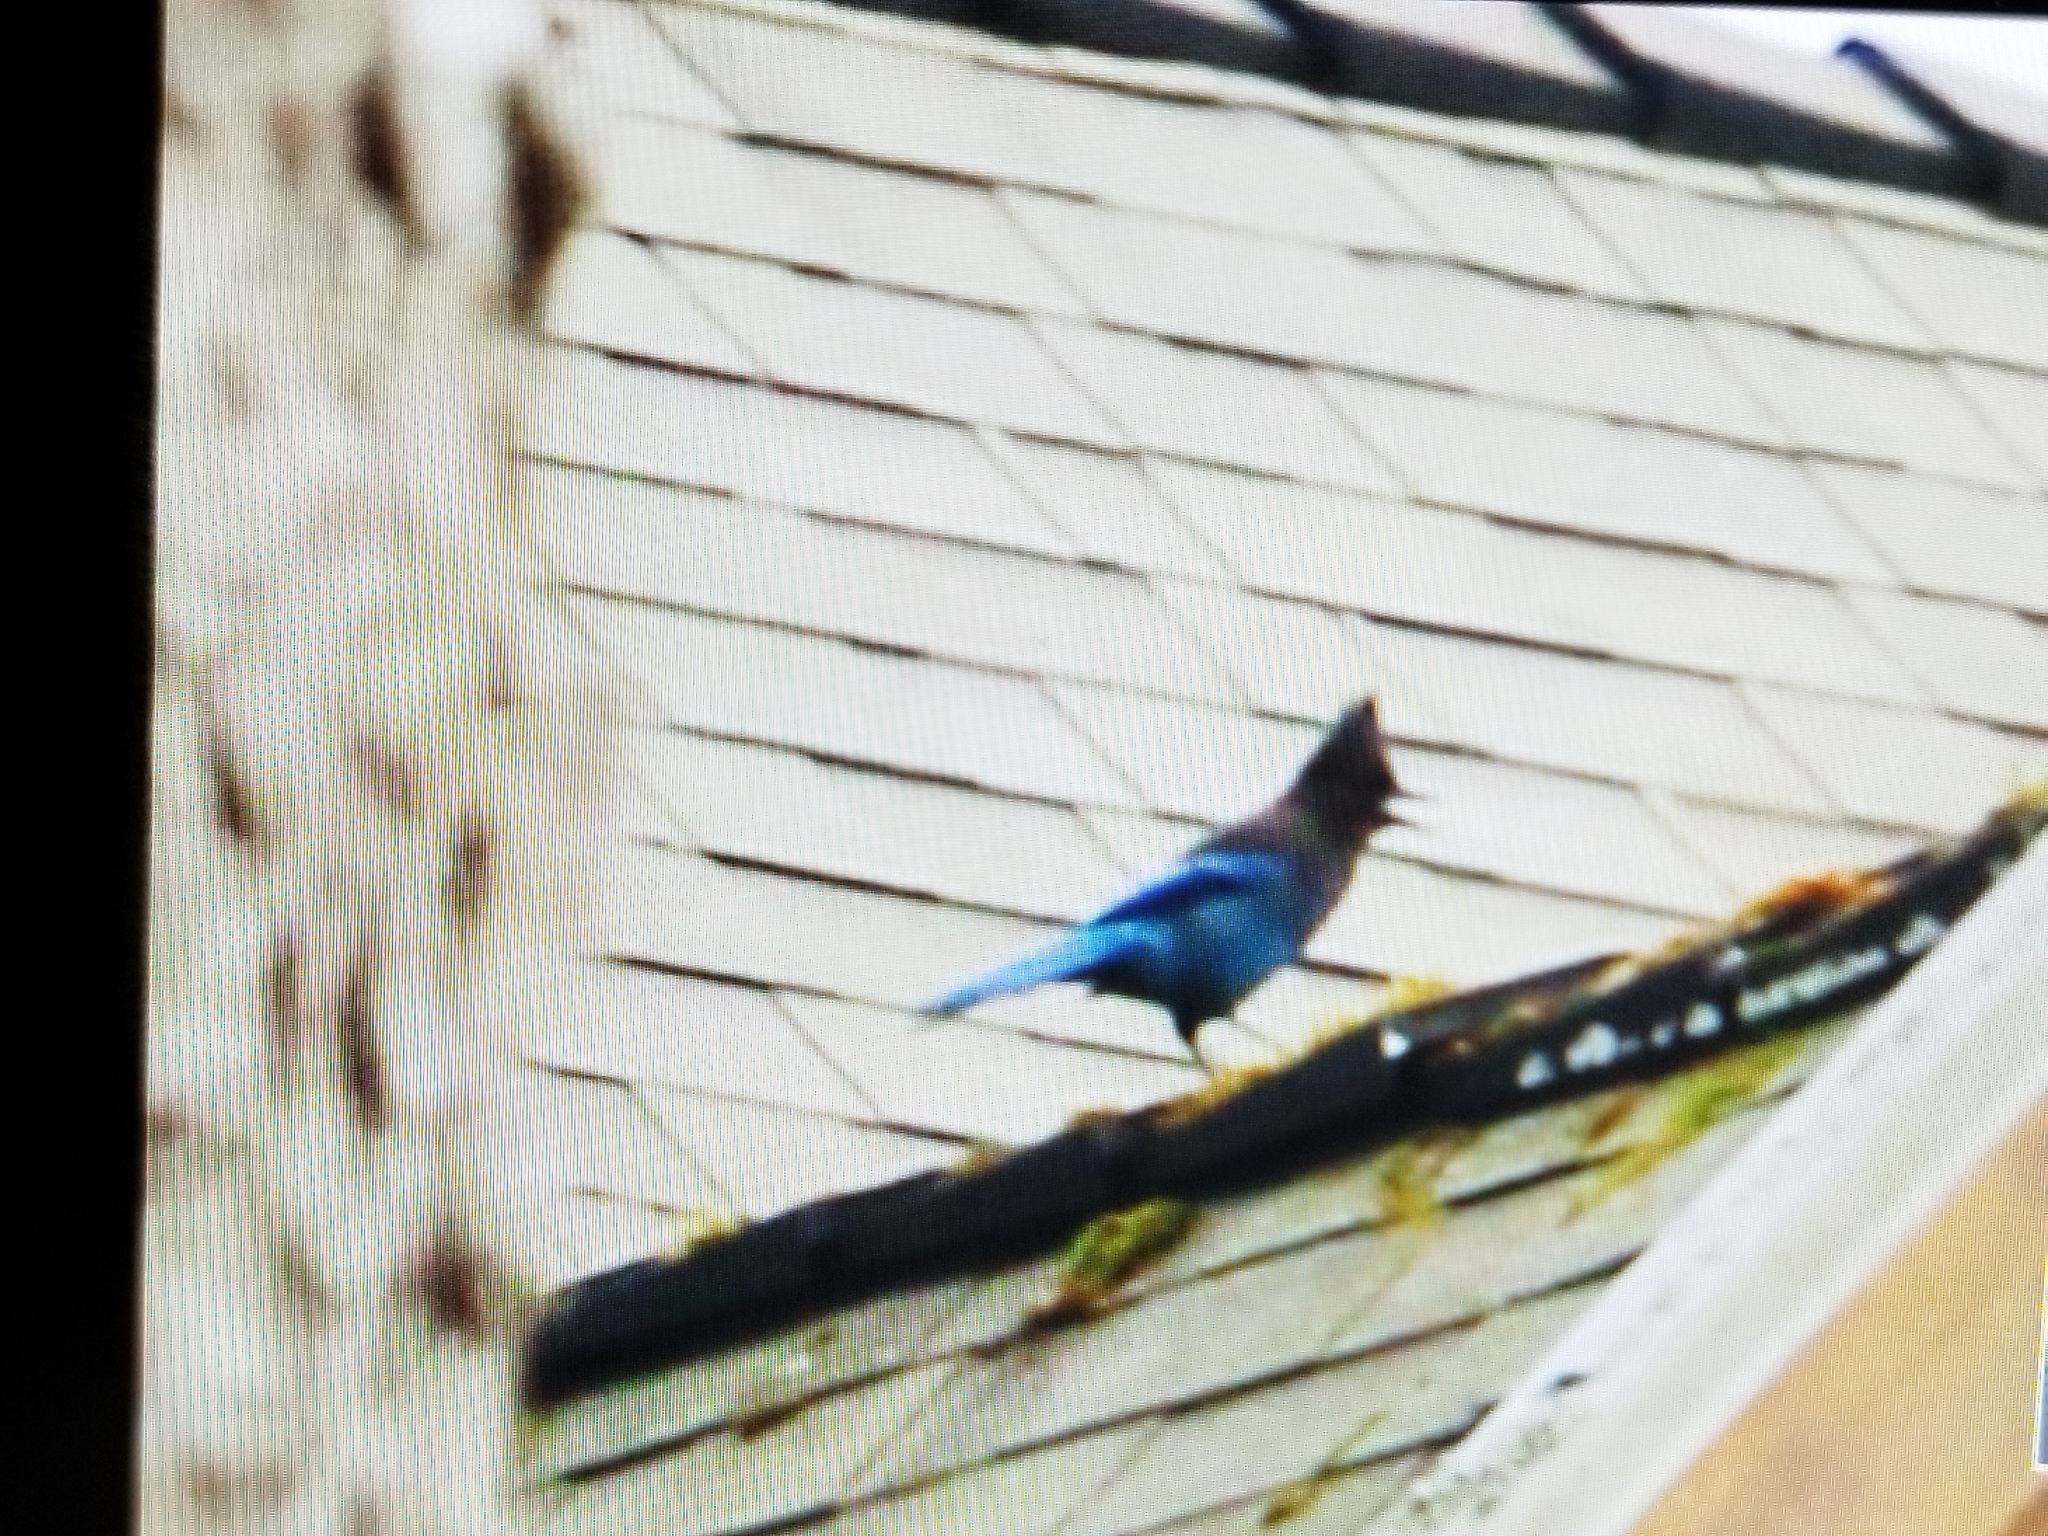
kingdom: Animalia
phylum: Chordata
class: Aves
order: Passeriformes
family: Corvidae
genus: Cyanocitta
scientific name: Cyanocitta stelleri
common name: Steller's jay
